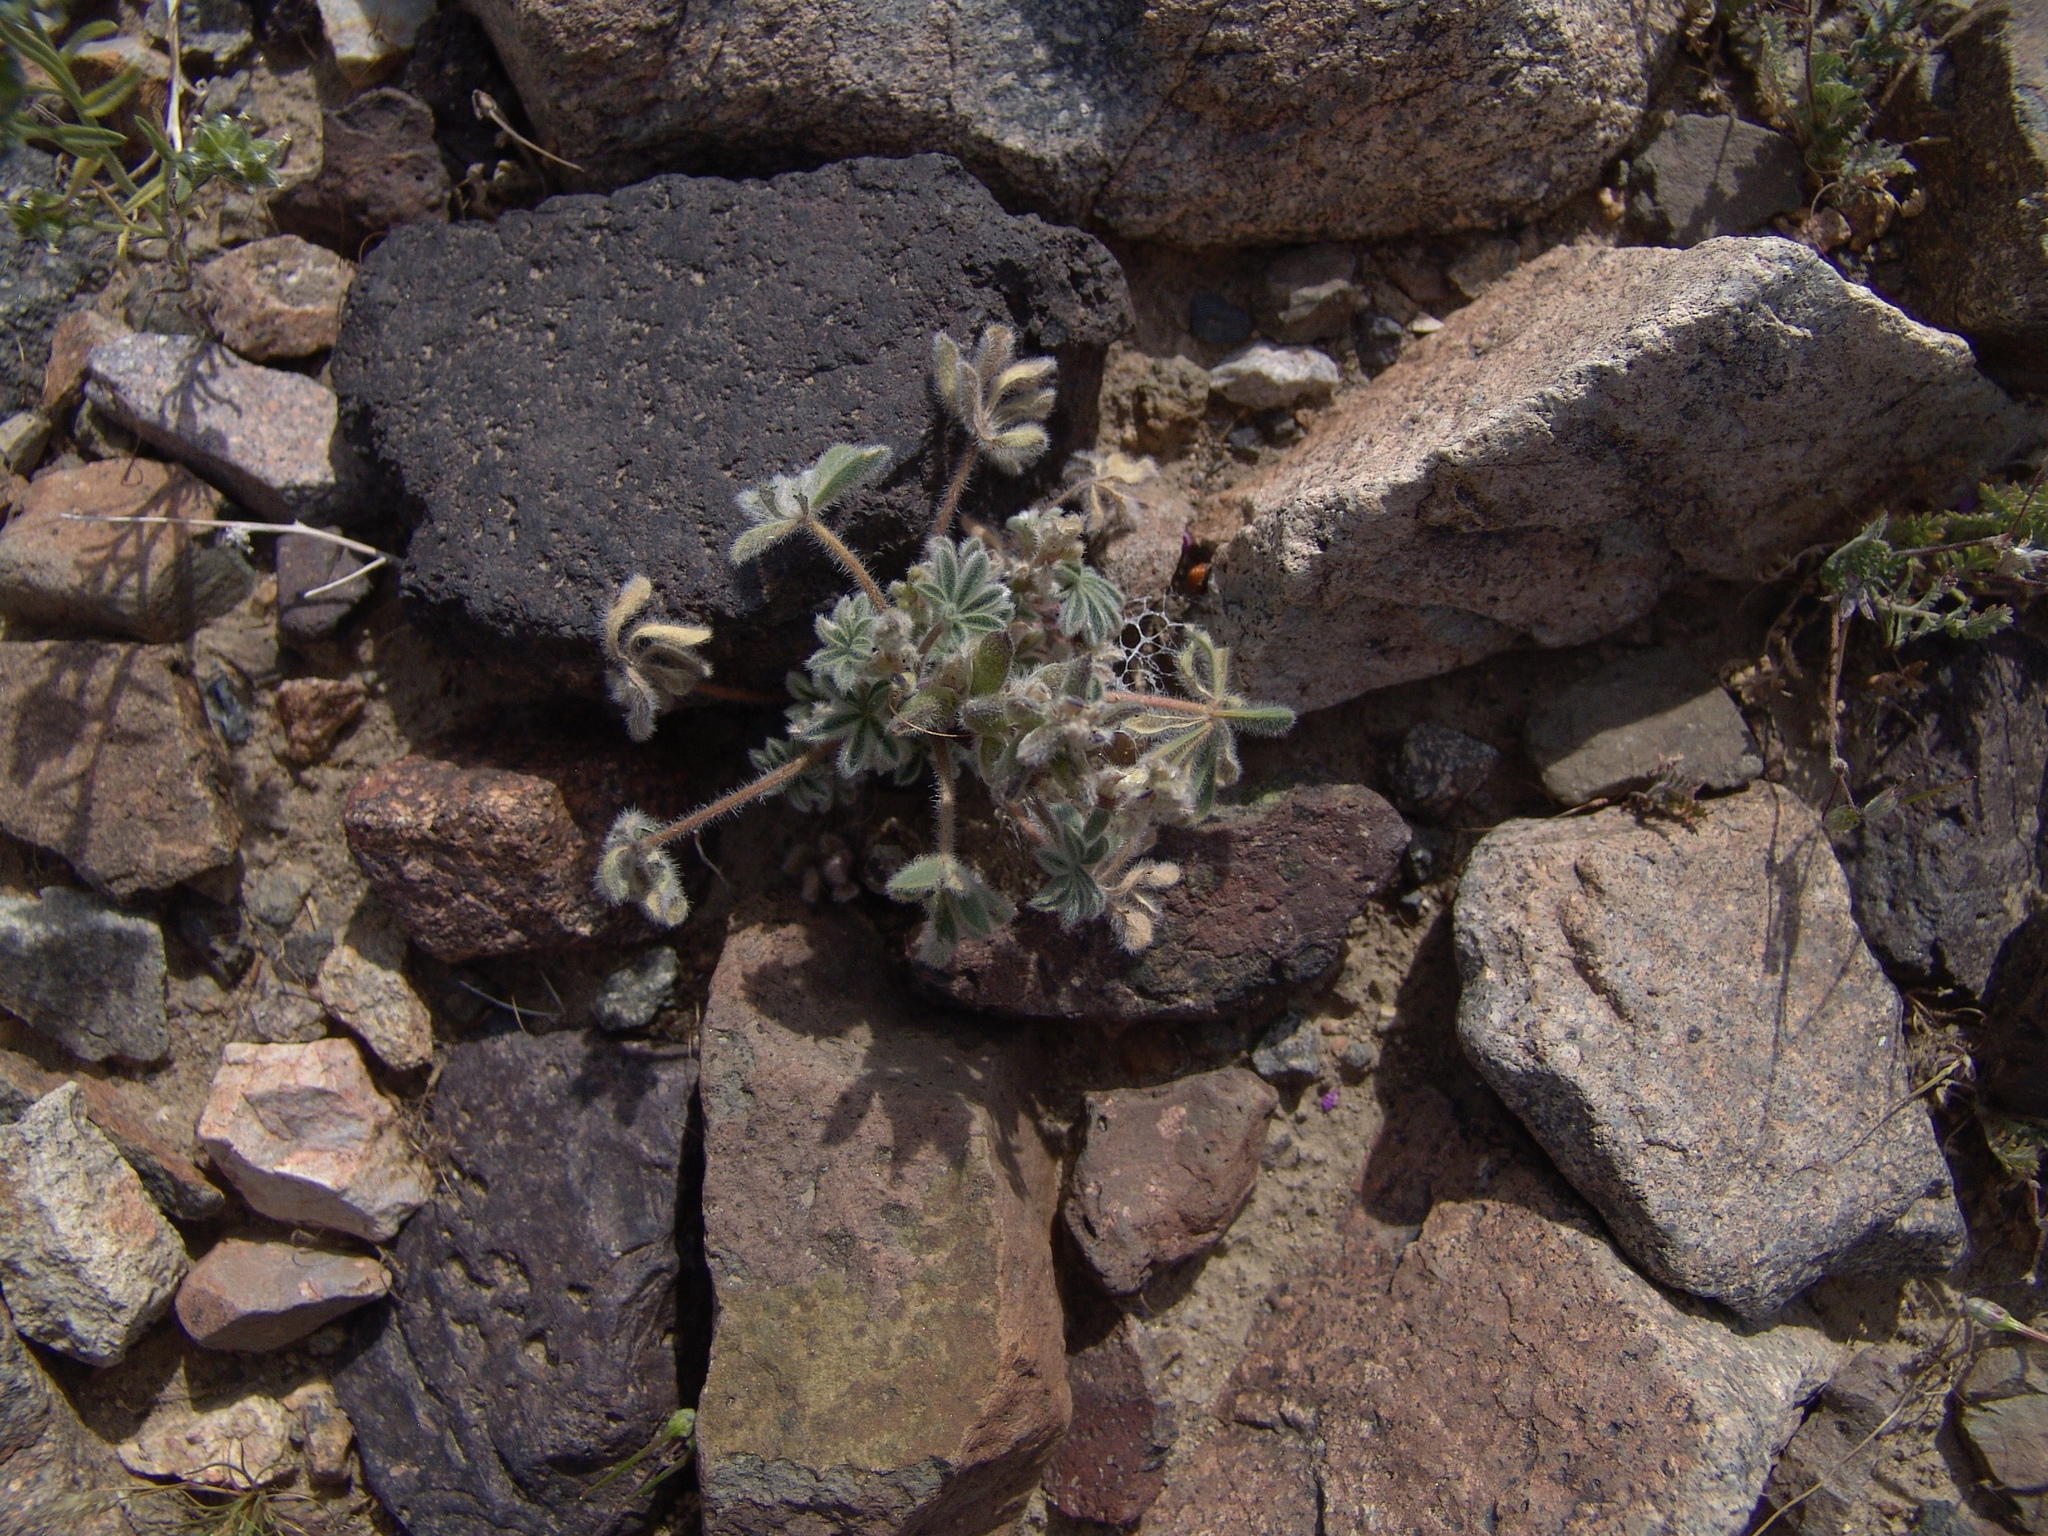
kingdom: Plantae
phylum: Tracheophyta
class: Magnoliopsida
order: Fabales
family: Fabaceae
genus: Lupinus
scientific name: Lupinus concinnus
